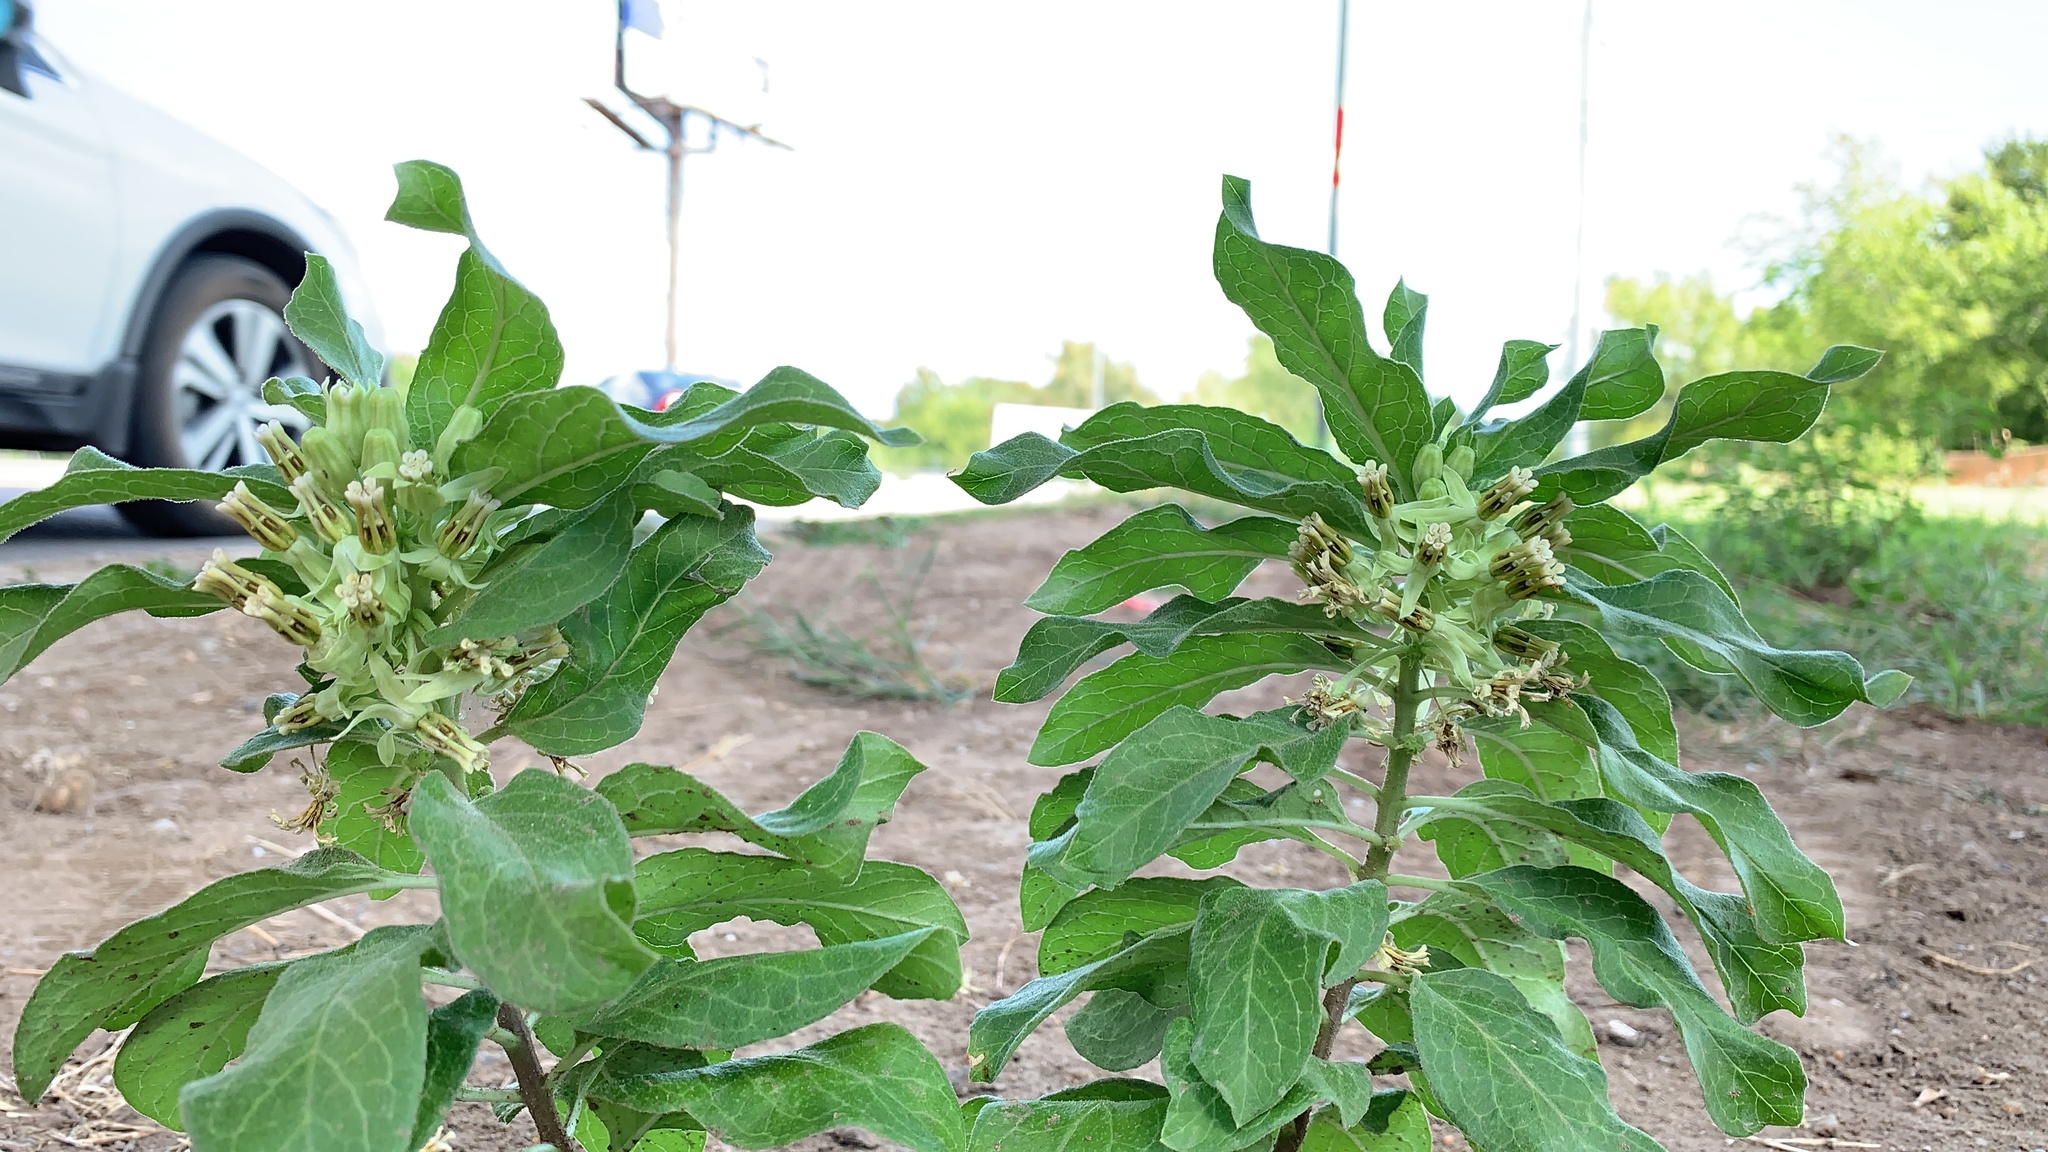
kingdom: Plantae
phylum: Tracheophyta
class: Magnoliopsida
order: Gentianales
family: Apocynaceae
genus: Asclepias
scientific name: Asclepias oenotheroides
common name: Zizotes milkweed
